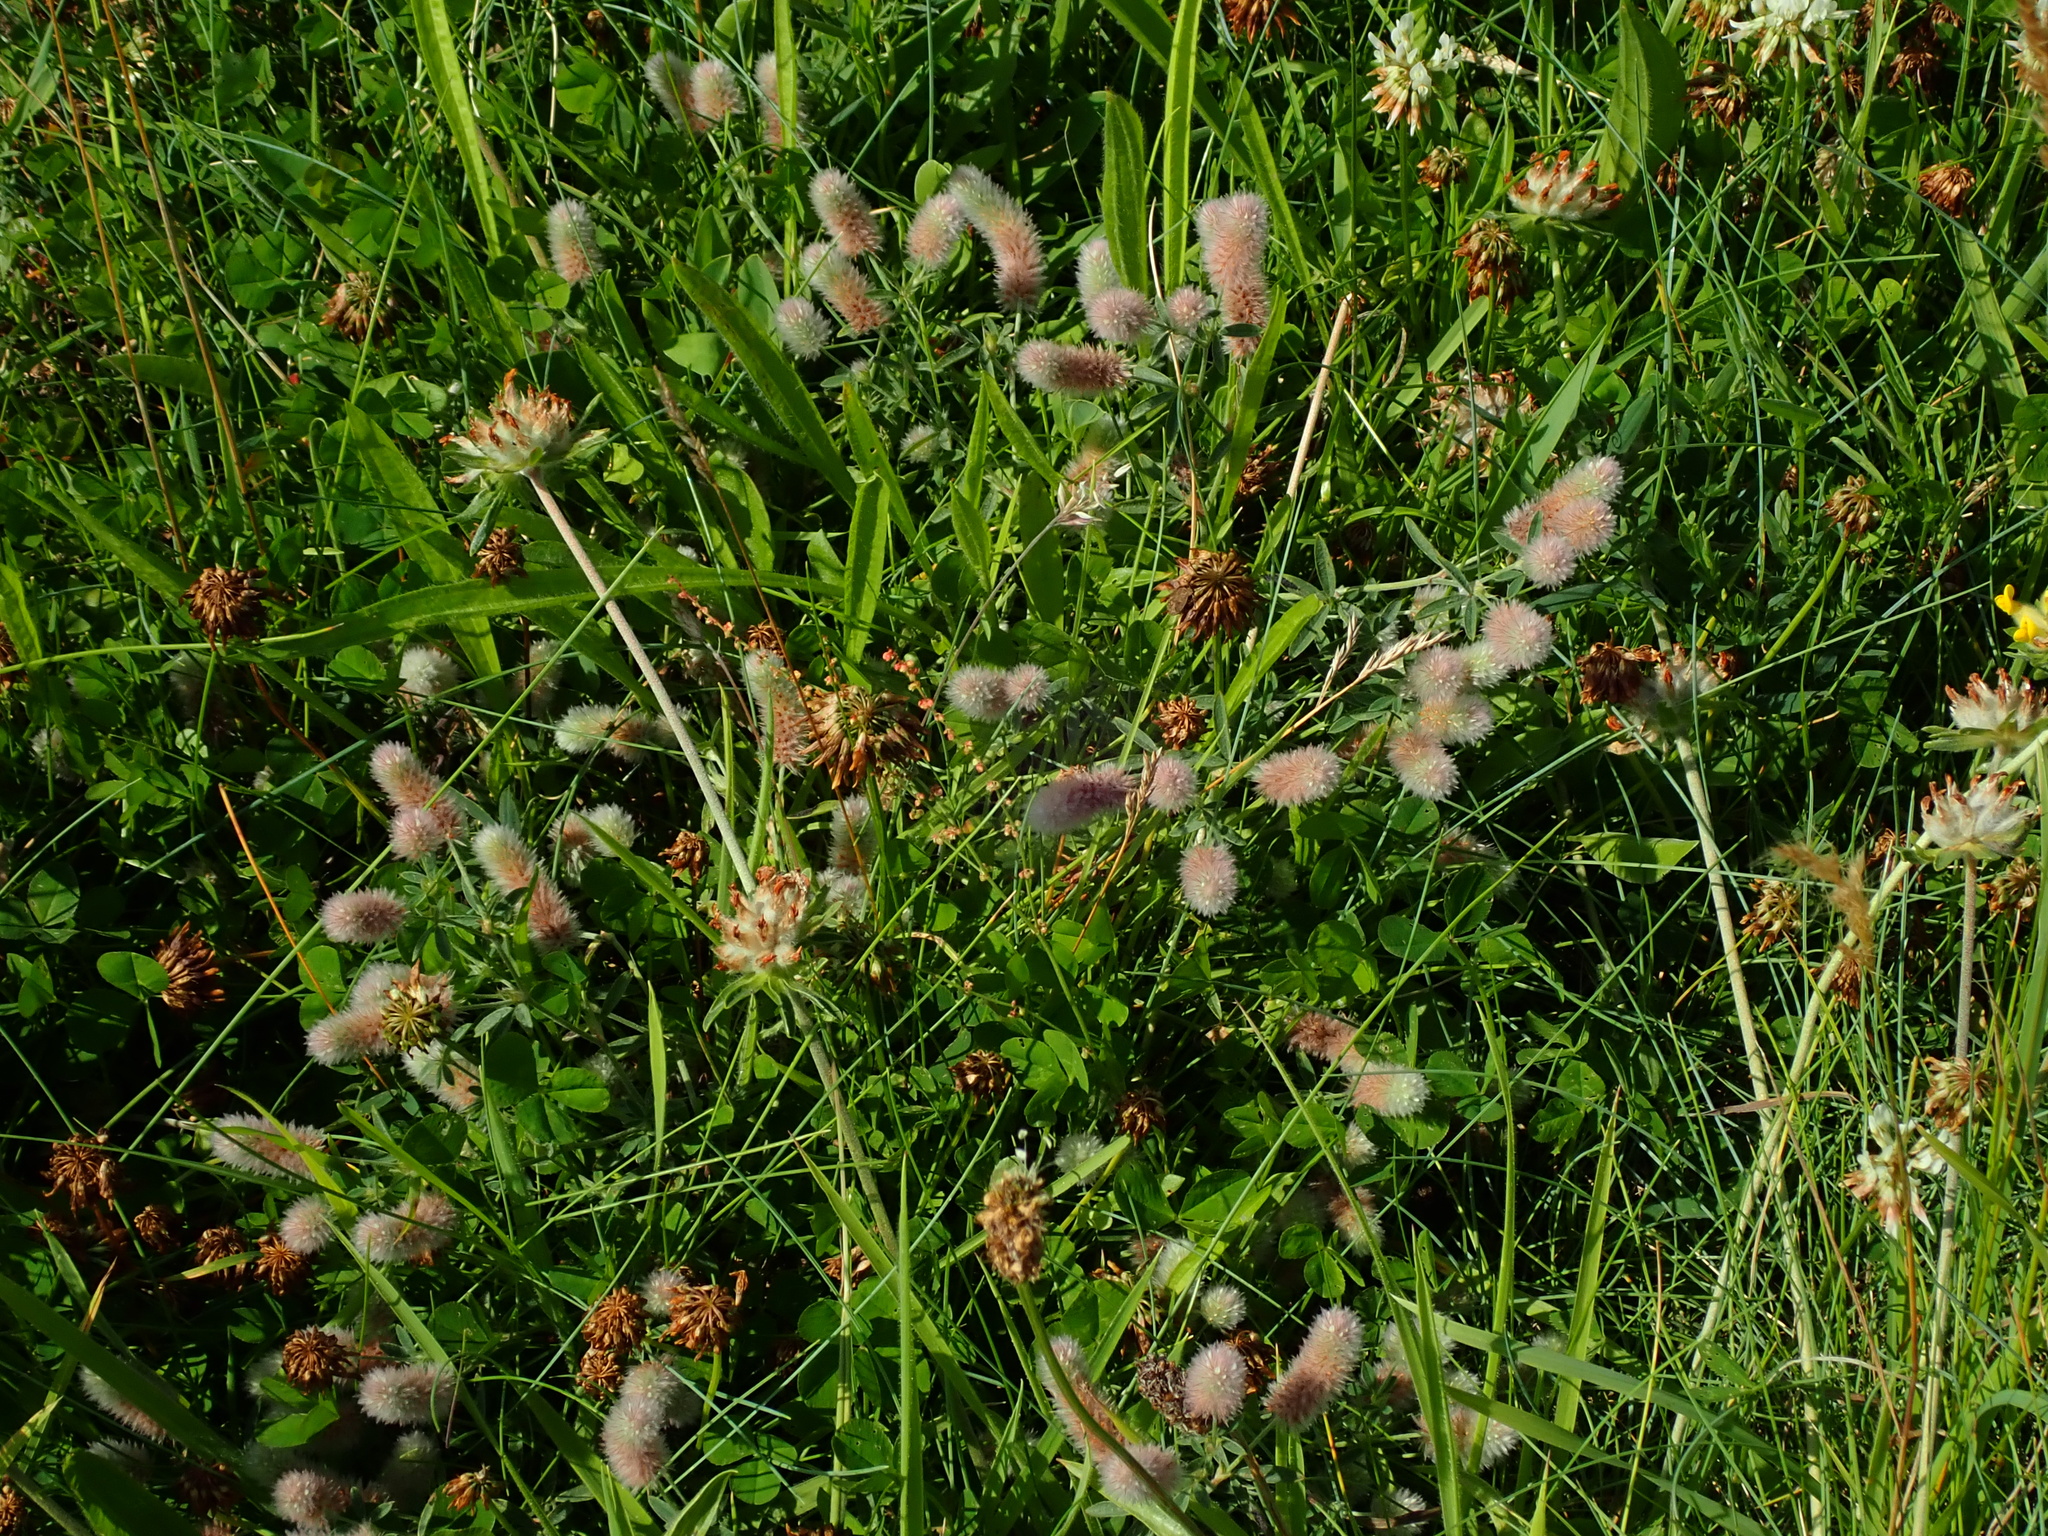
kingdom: Plantae
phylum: Tracheophyta
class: Magnoliopsida
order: Fabales
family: Fabaceae
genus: Trifolium
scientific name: Trifolium arvense
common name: Hare's-foot clover
